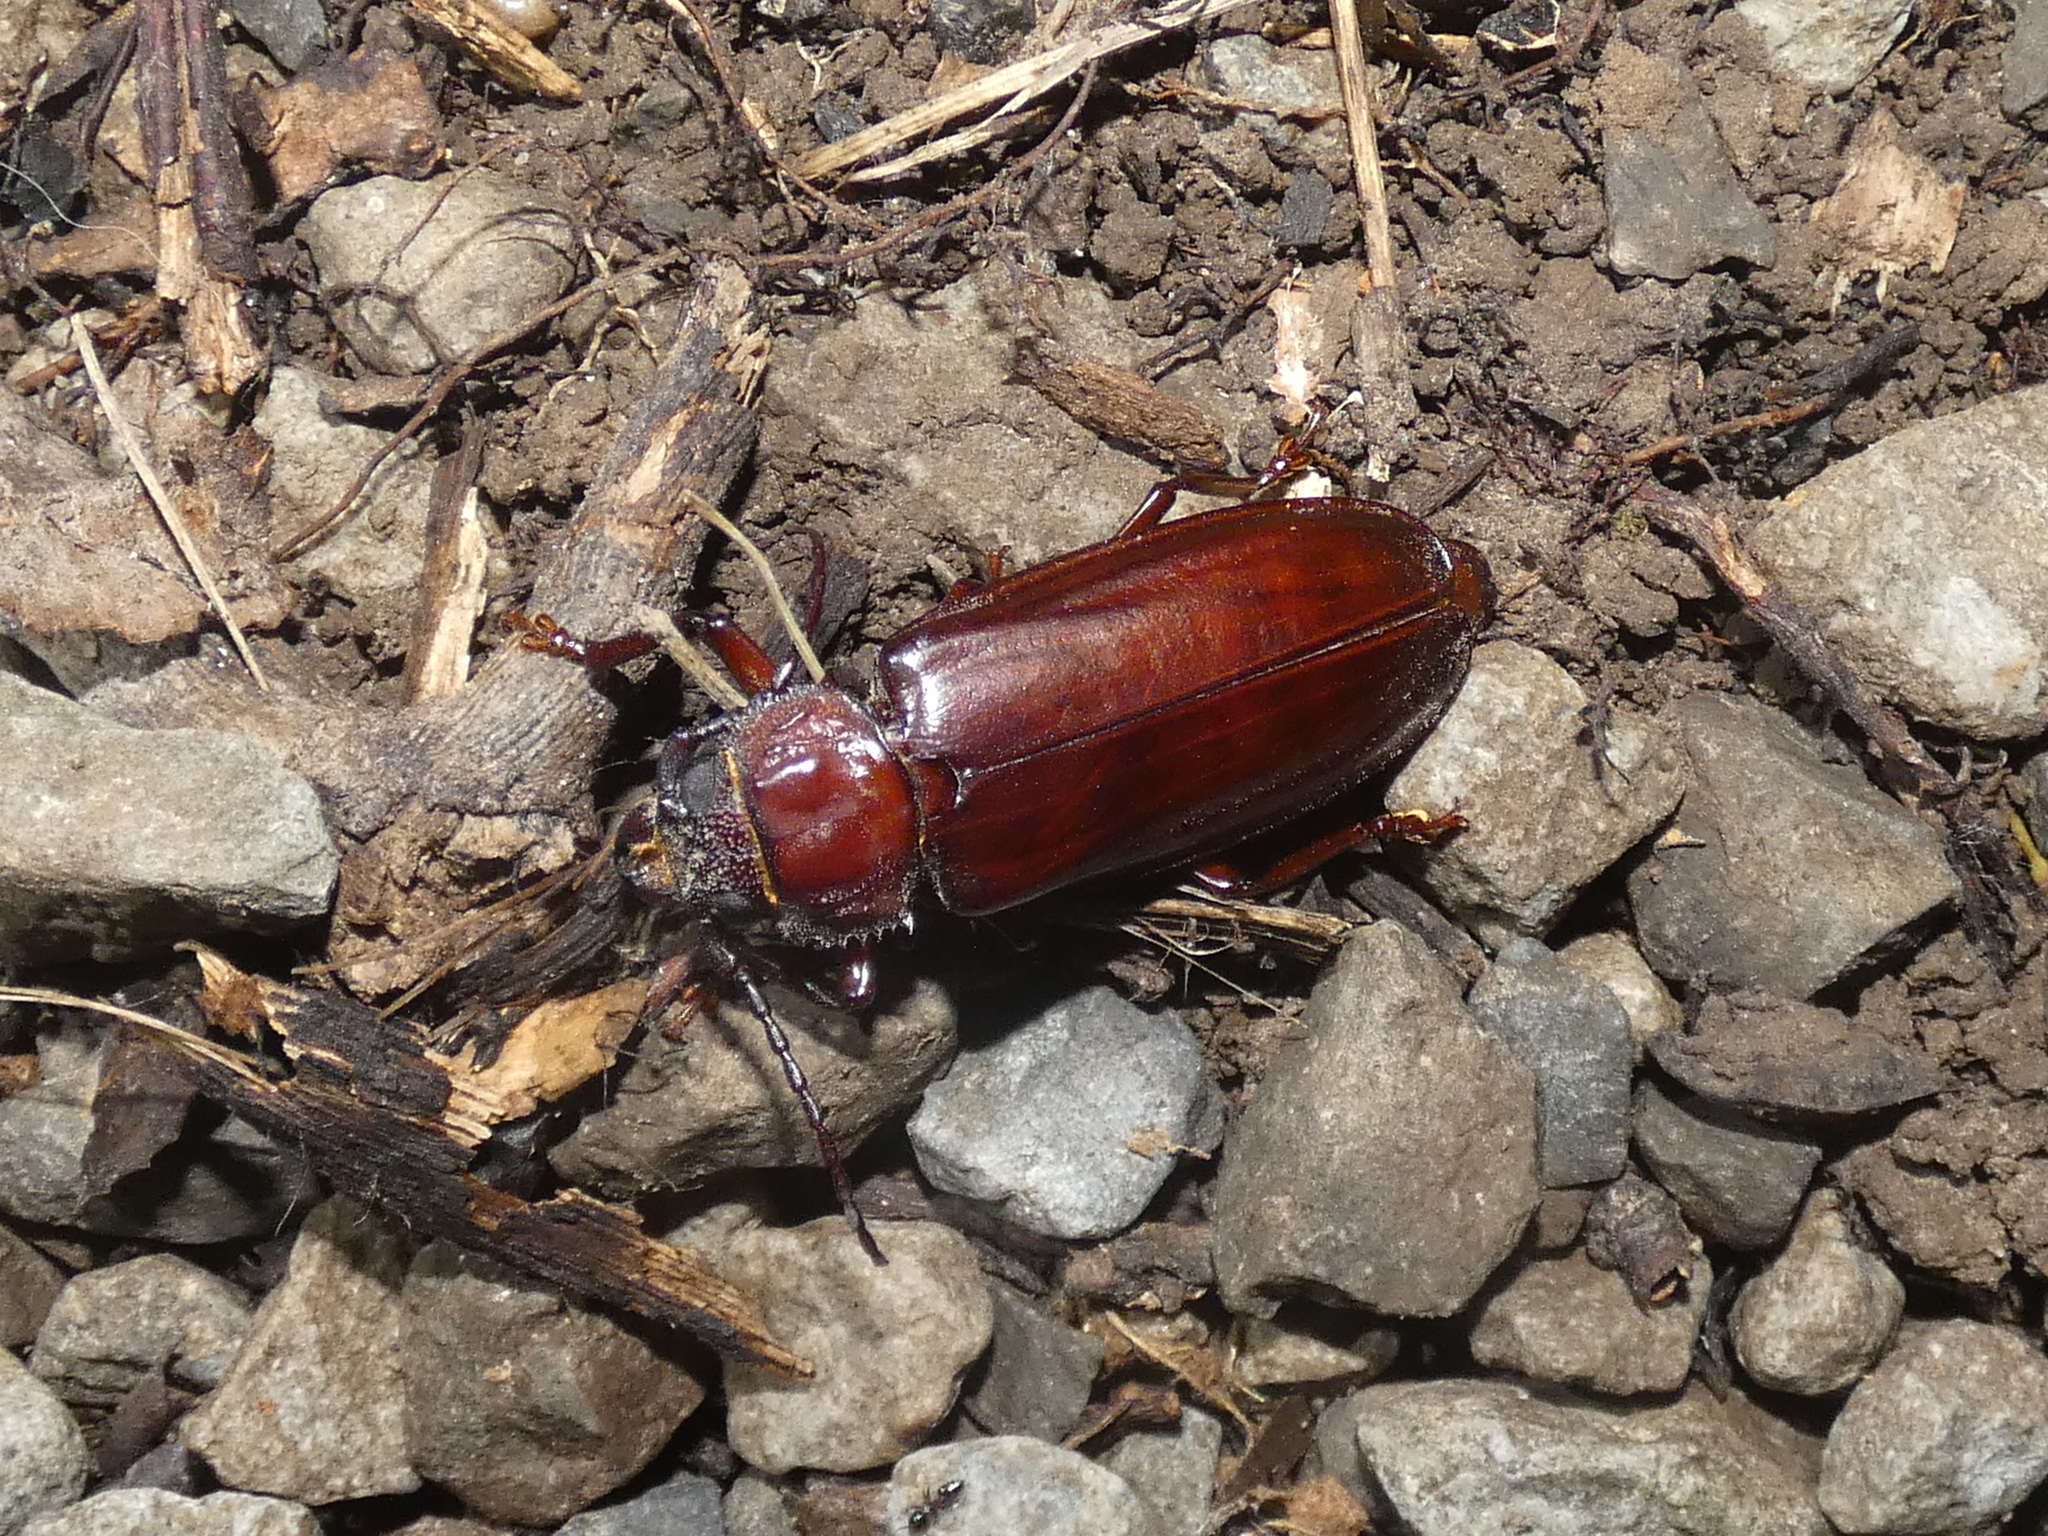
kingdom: Animalia
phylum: Arthropoda
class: Insecta
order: Coleoptera
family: Cerambycidae
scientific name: Cerambycidae
